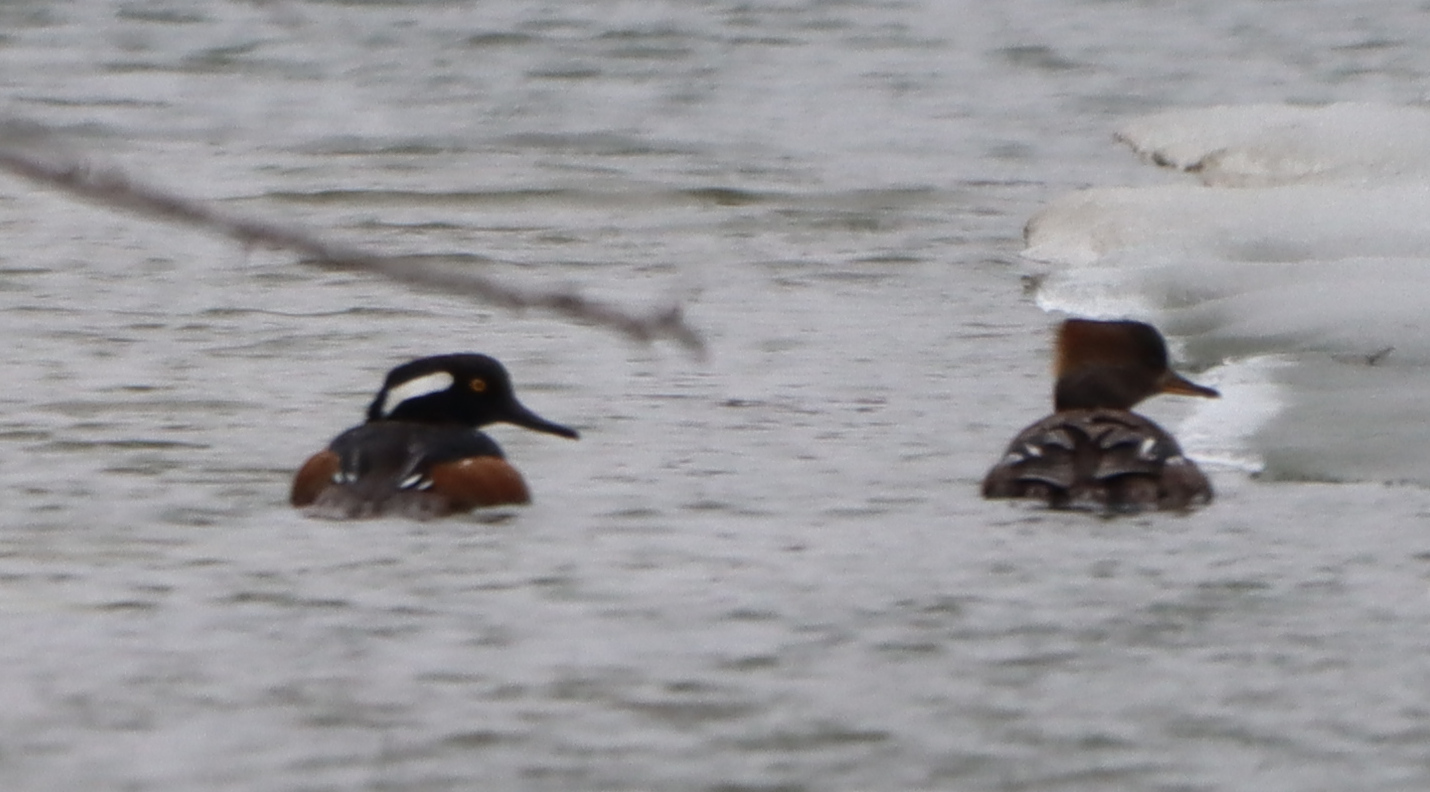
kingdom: Animalia
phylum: Chordata
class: Aves
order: Anseriformes
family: Anatidae
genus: Lophodytes
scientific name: Lophodytes cucullatus
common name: Hooded merganser
